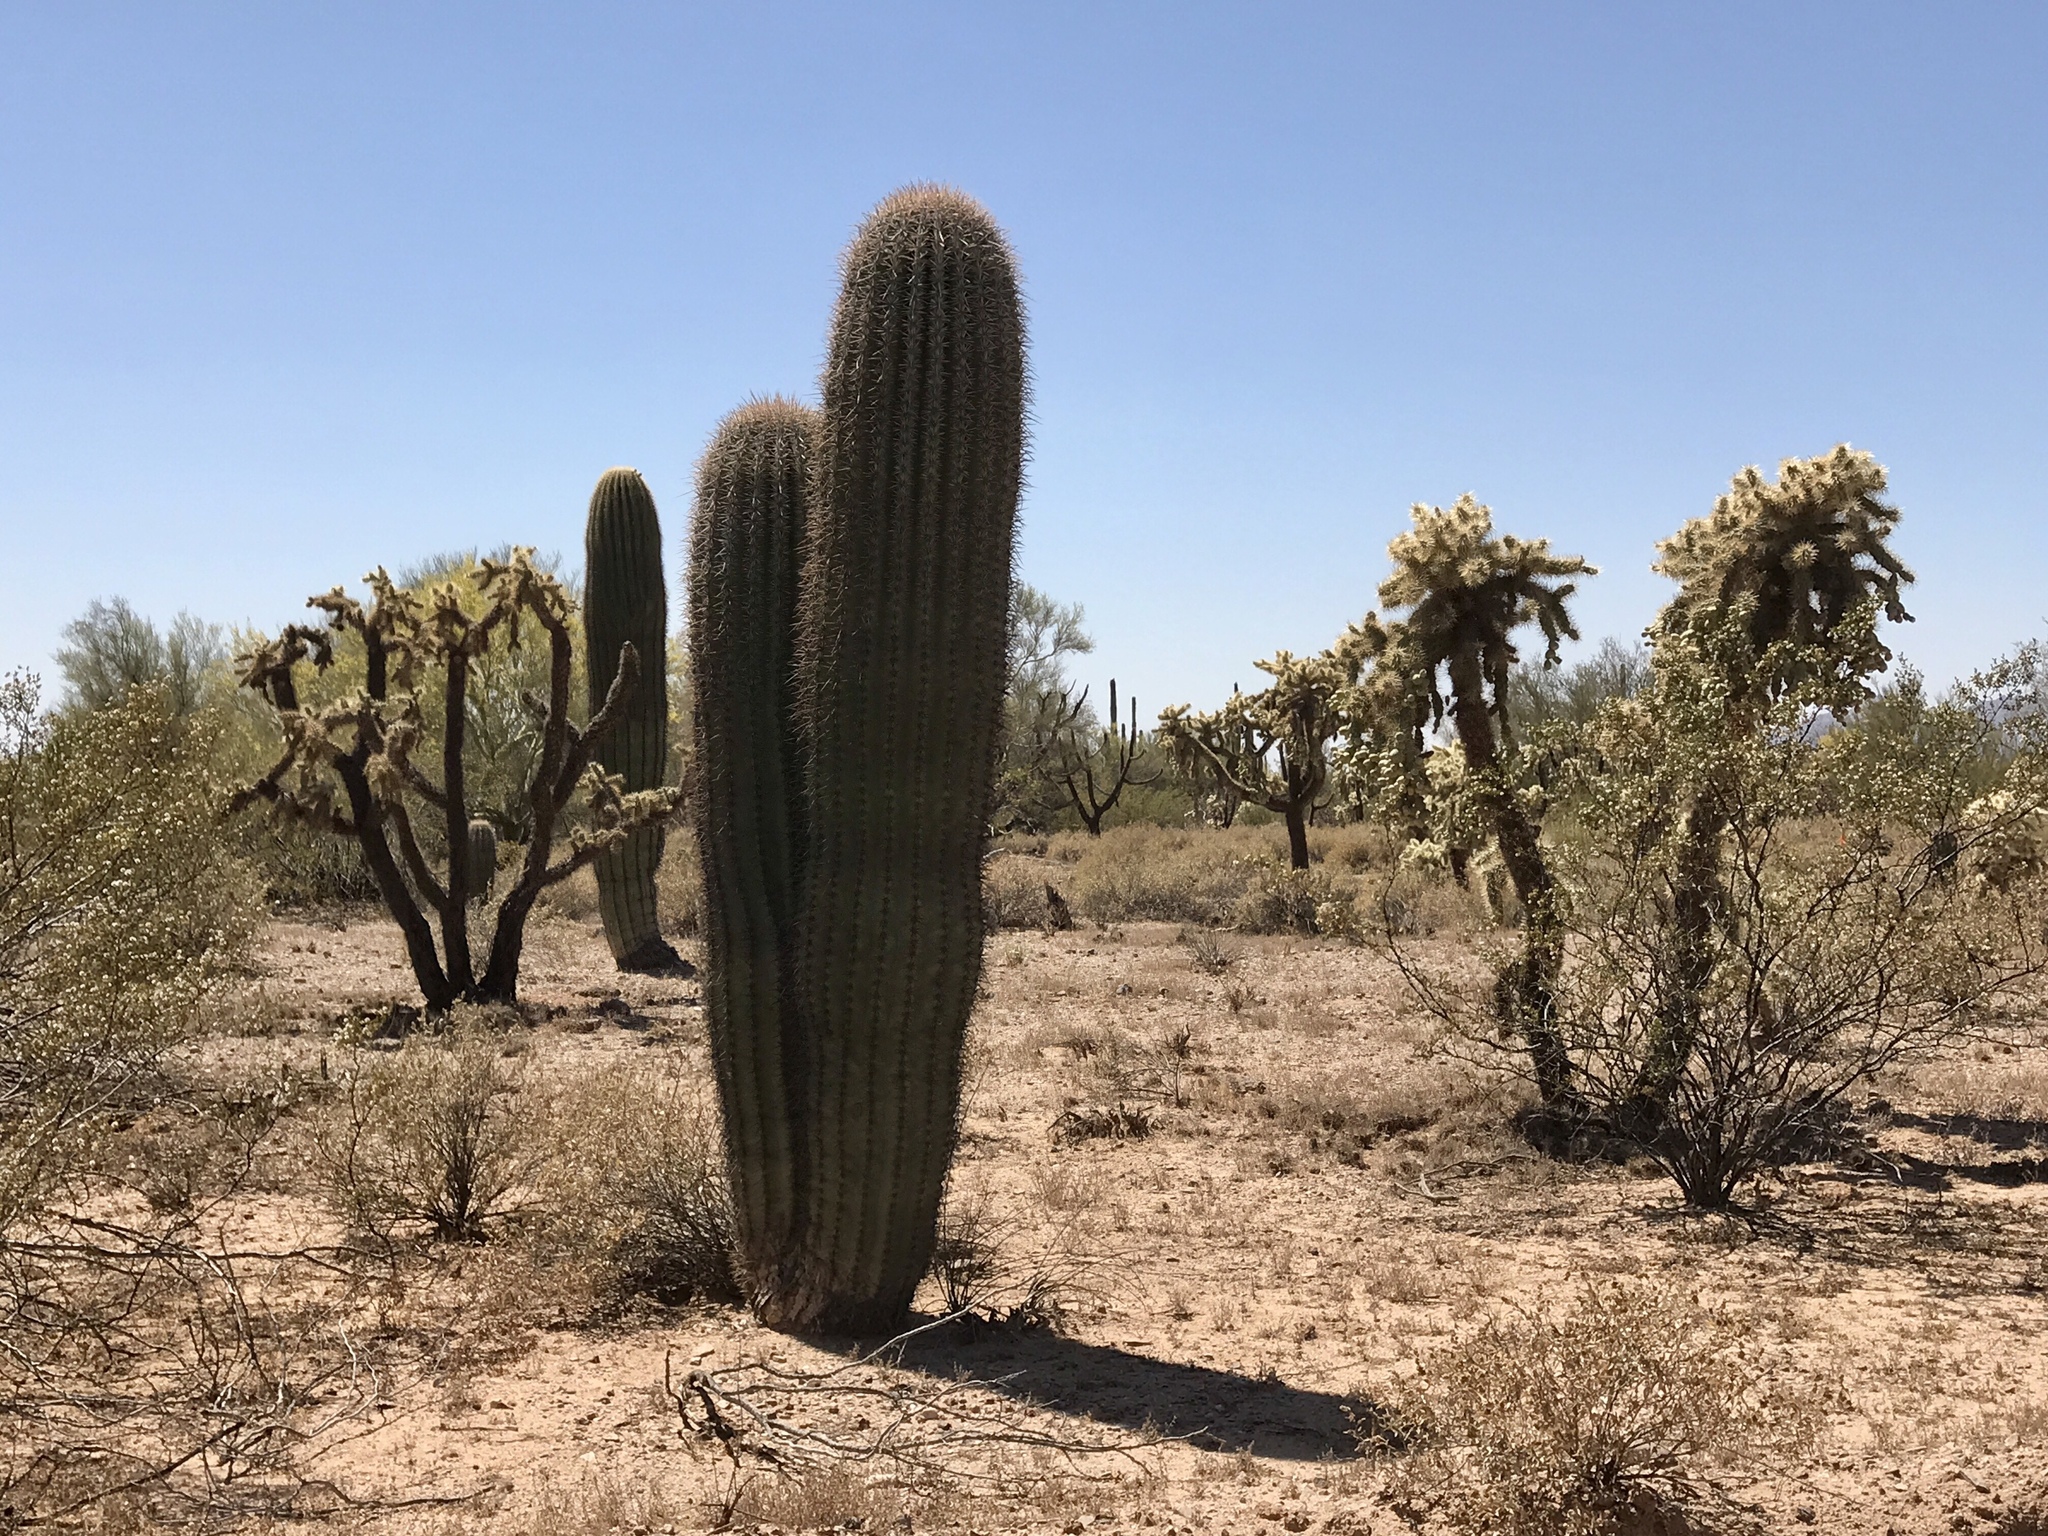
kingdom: Plantae
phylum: Tracheophyta
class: Magnoliopsida
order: Caryophyllales
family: Cactaceae
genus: Carnegiea
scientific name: Carnegiea gigantea
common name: Saguaro
